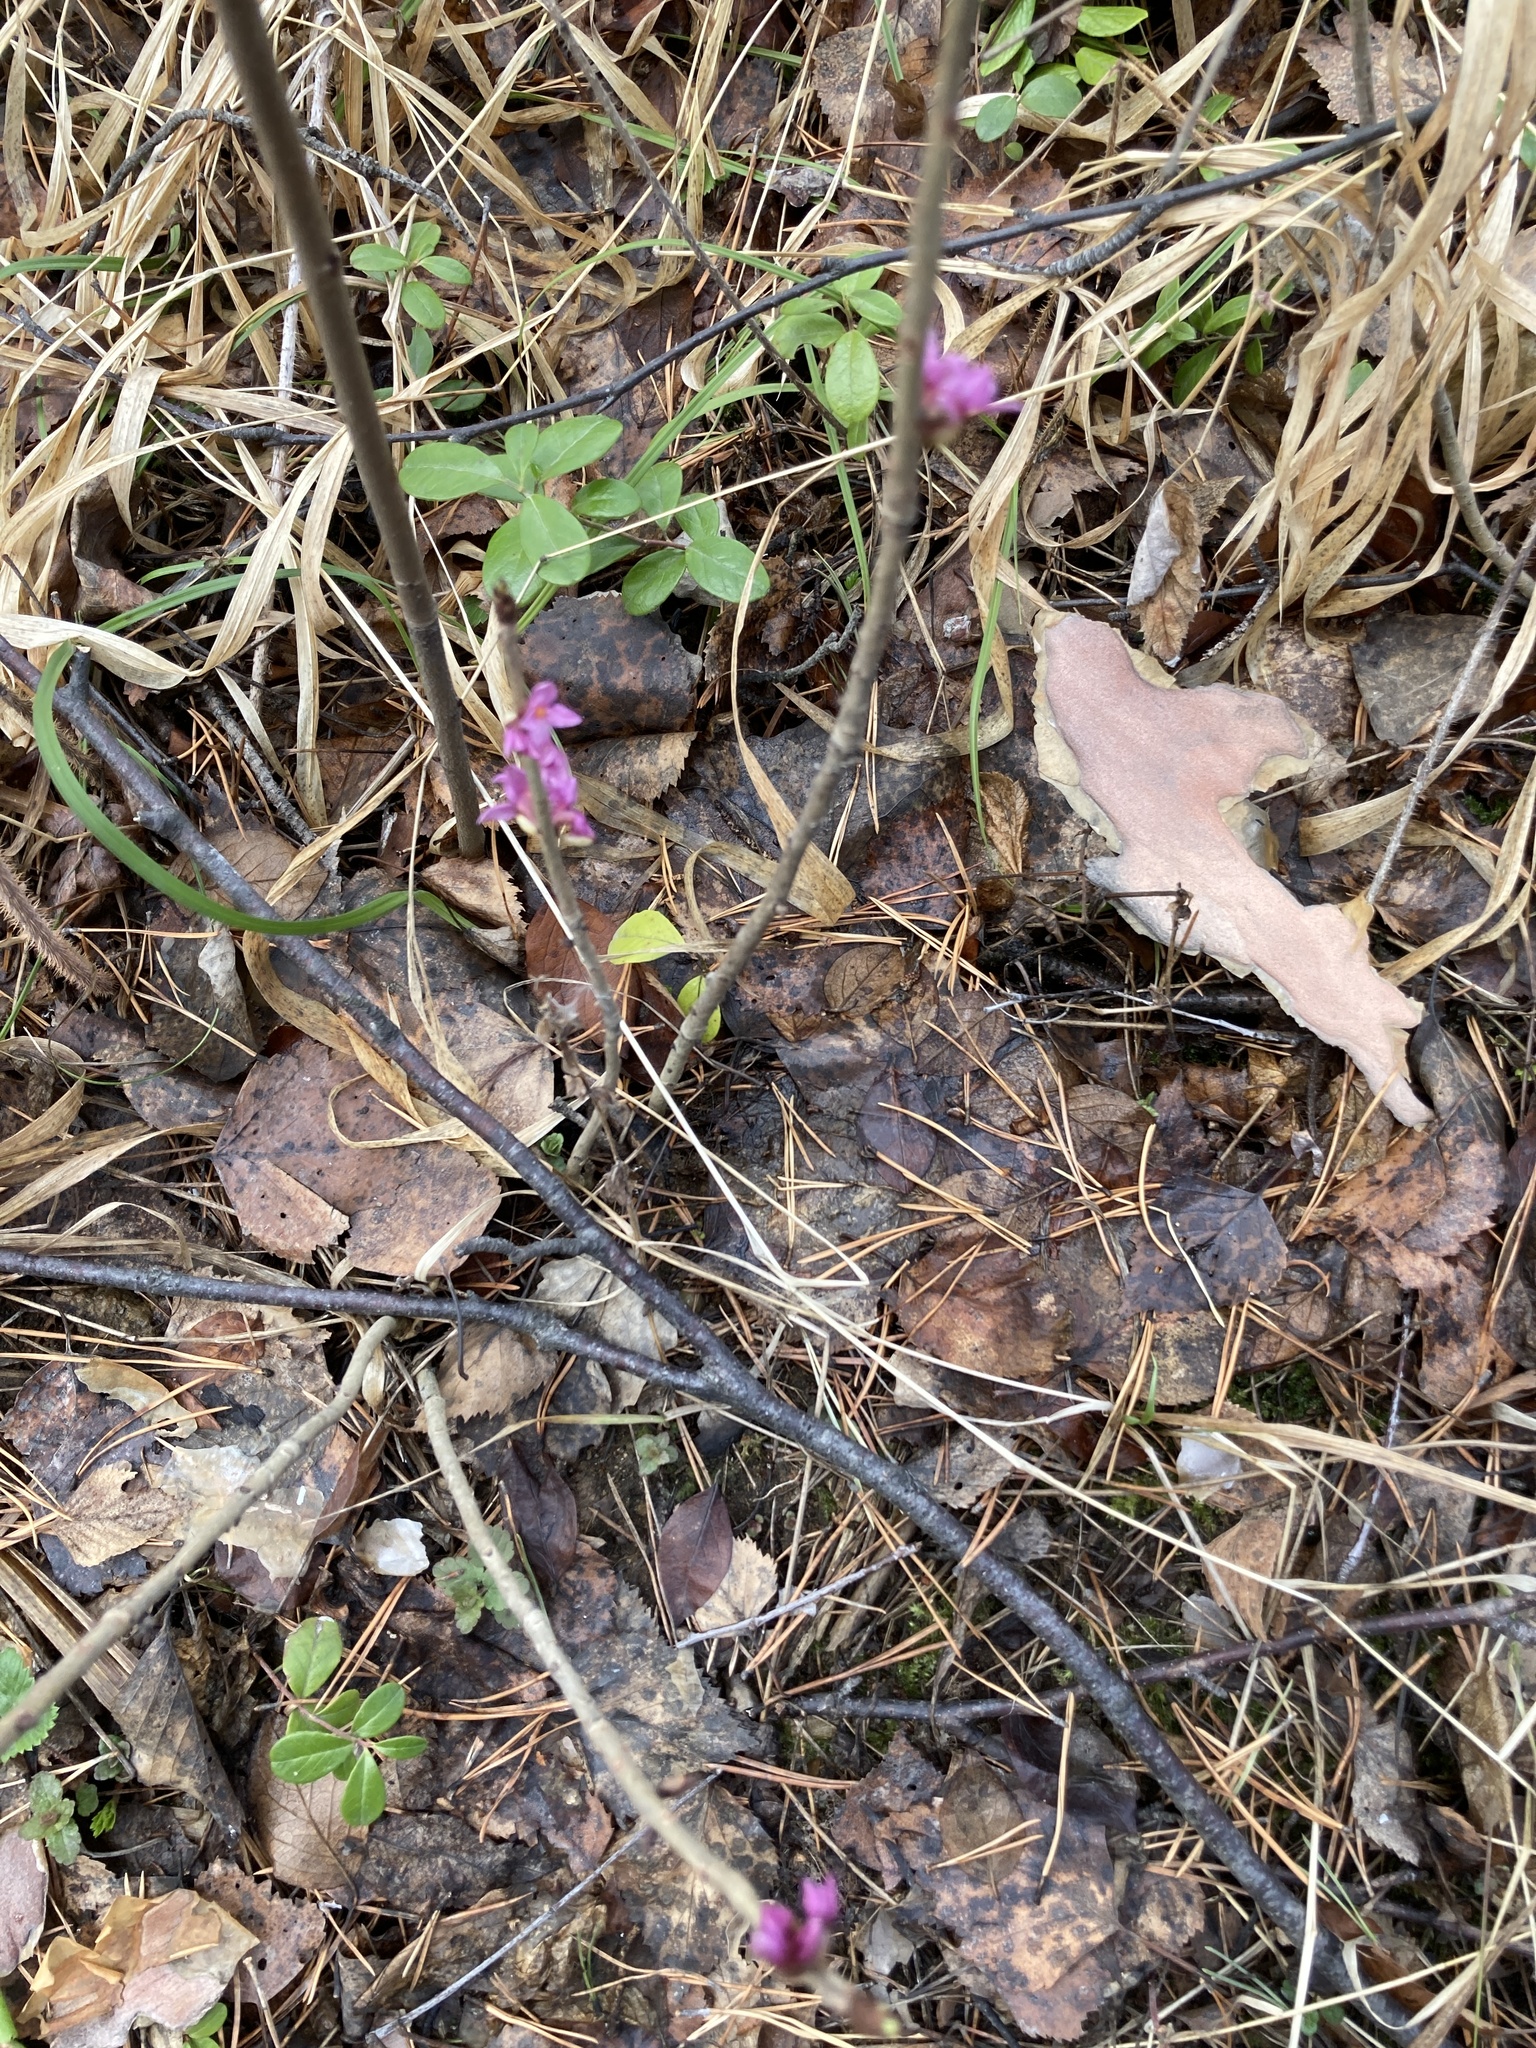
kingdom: Plantae
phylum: Tracheophyta
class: Magnoliopsida
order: Malvales
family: Thymelaeaceae
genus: Daphne
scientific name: Daphne mezereum
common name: Mezereon
